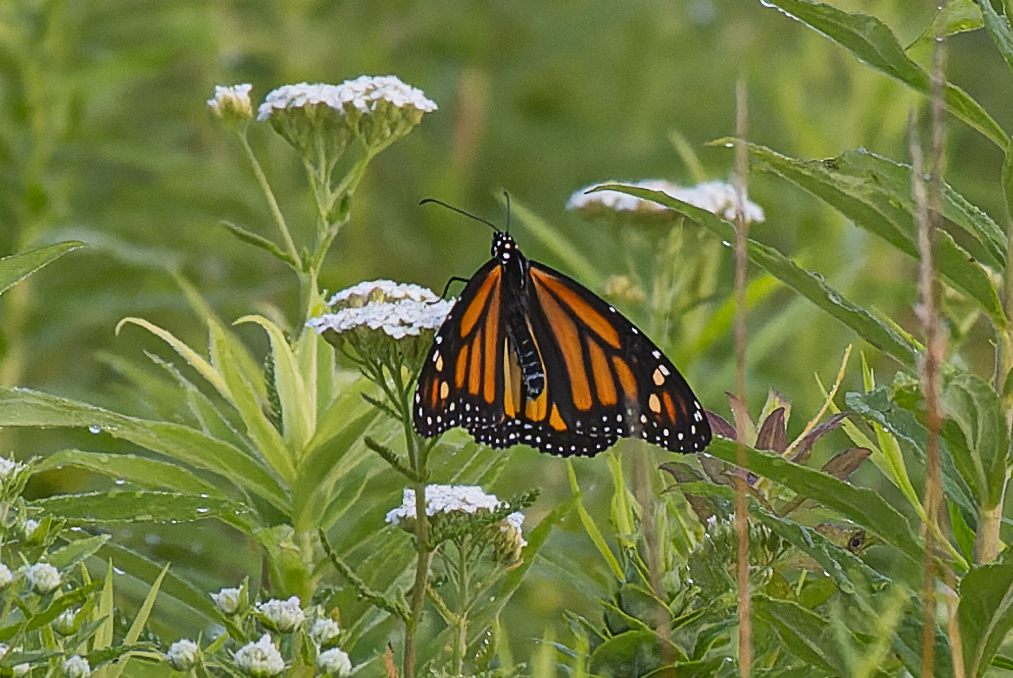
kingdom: Animalia
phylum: Arthropoda
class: Insecta
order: Lepidoptera
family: Nymphalidae
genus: Danaus
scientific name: Danaus plexippus
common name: Monarch
